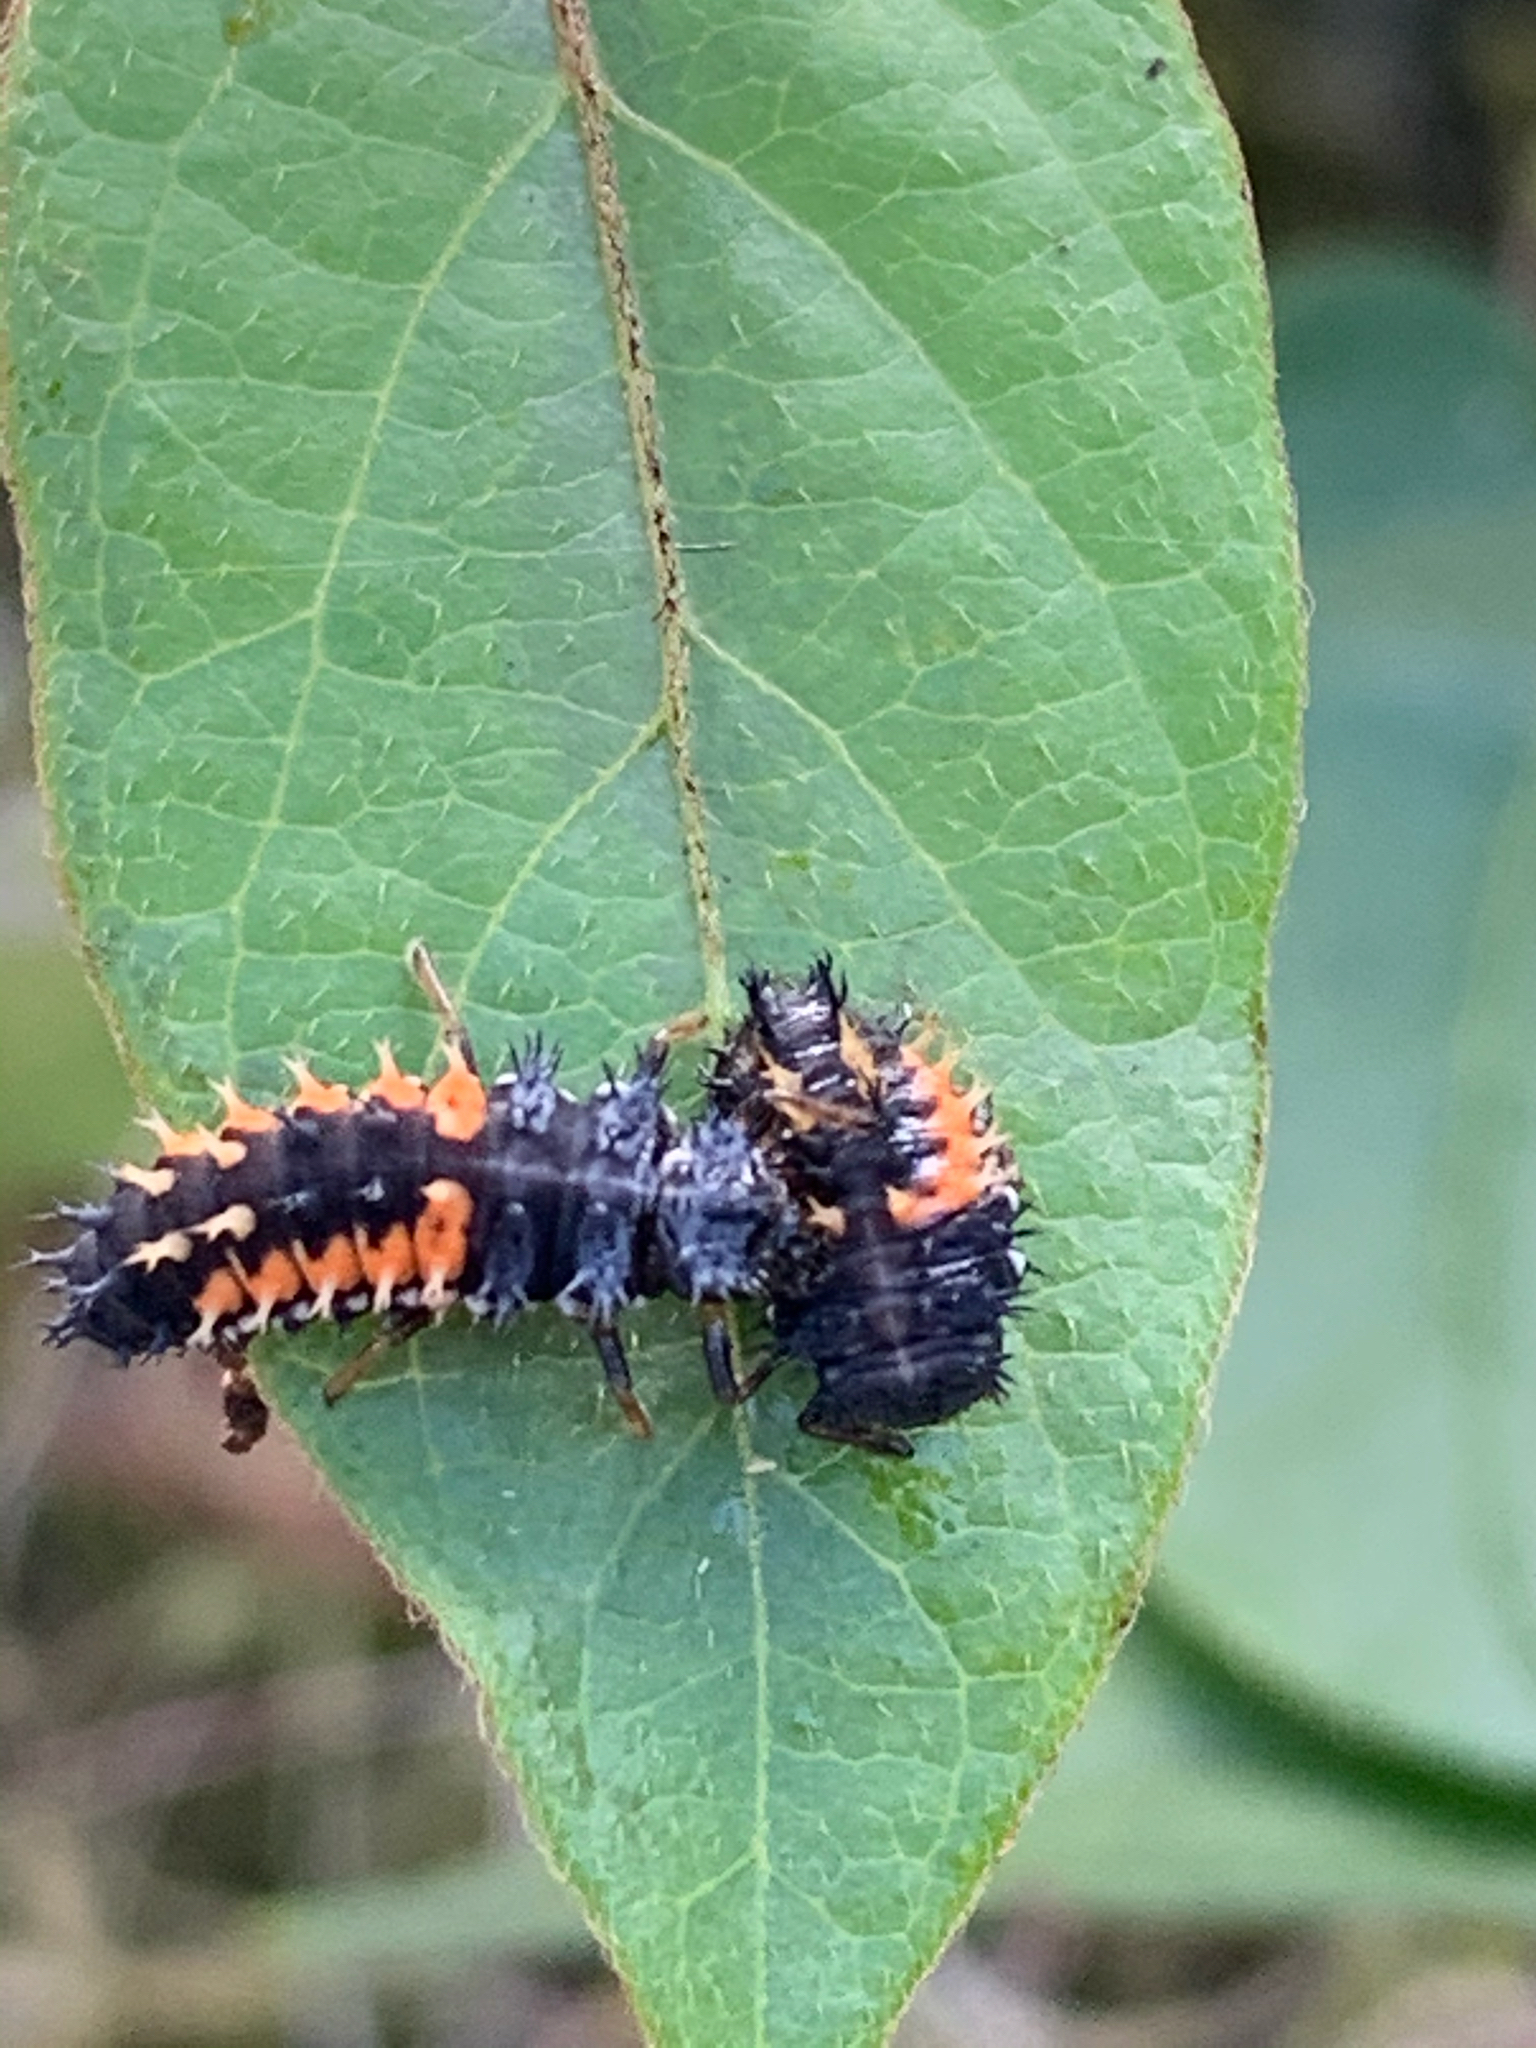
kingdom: Animalia
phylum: Arthropoda
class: Insecta
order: Coleoptera
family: Coccinellidae
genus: Harmonia
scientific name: Harmonia axyridis
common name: Harlequin ladybird
